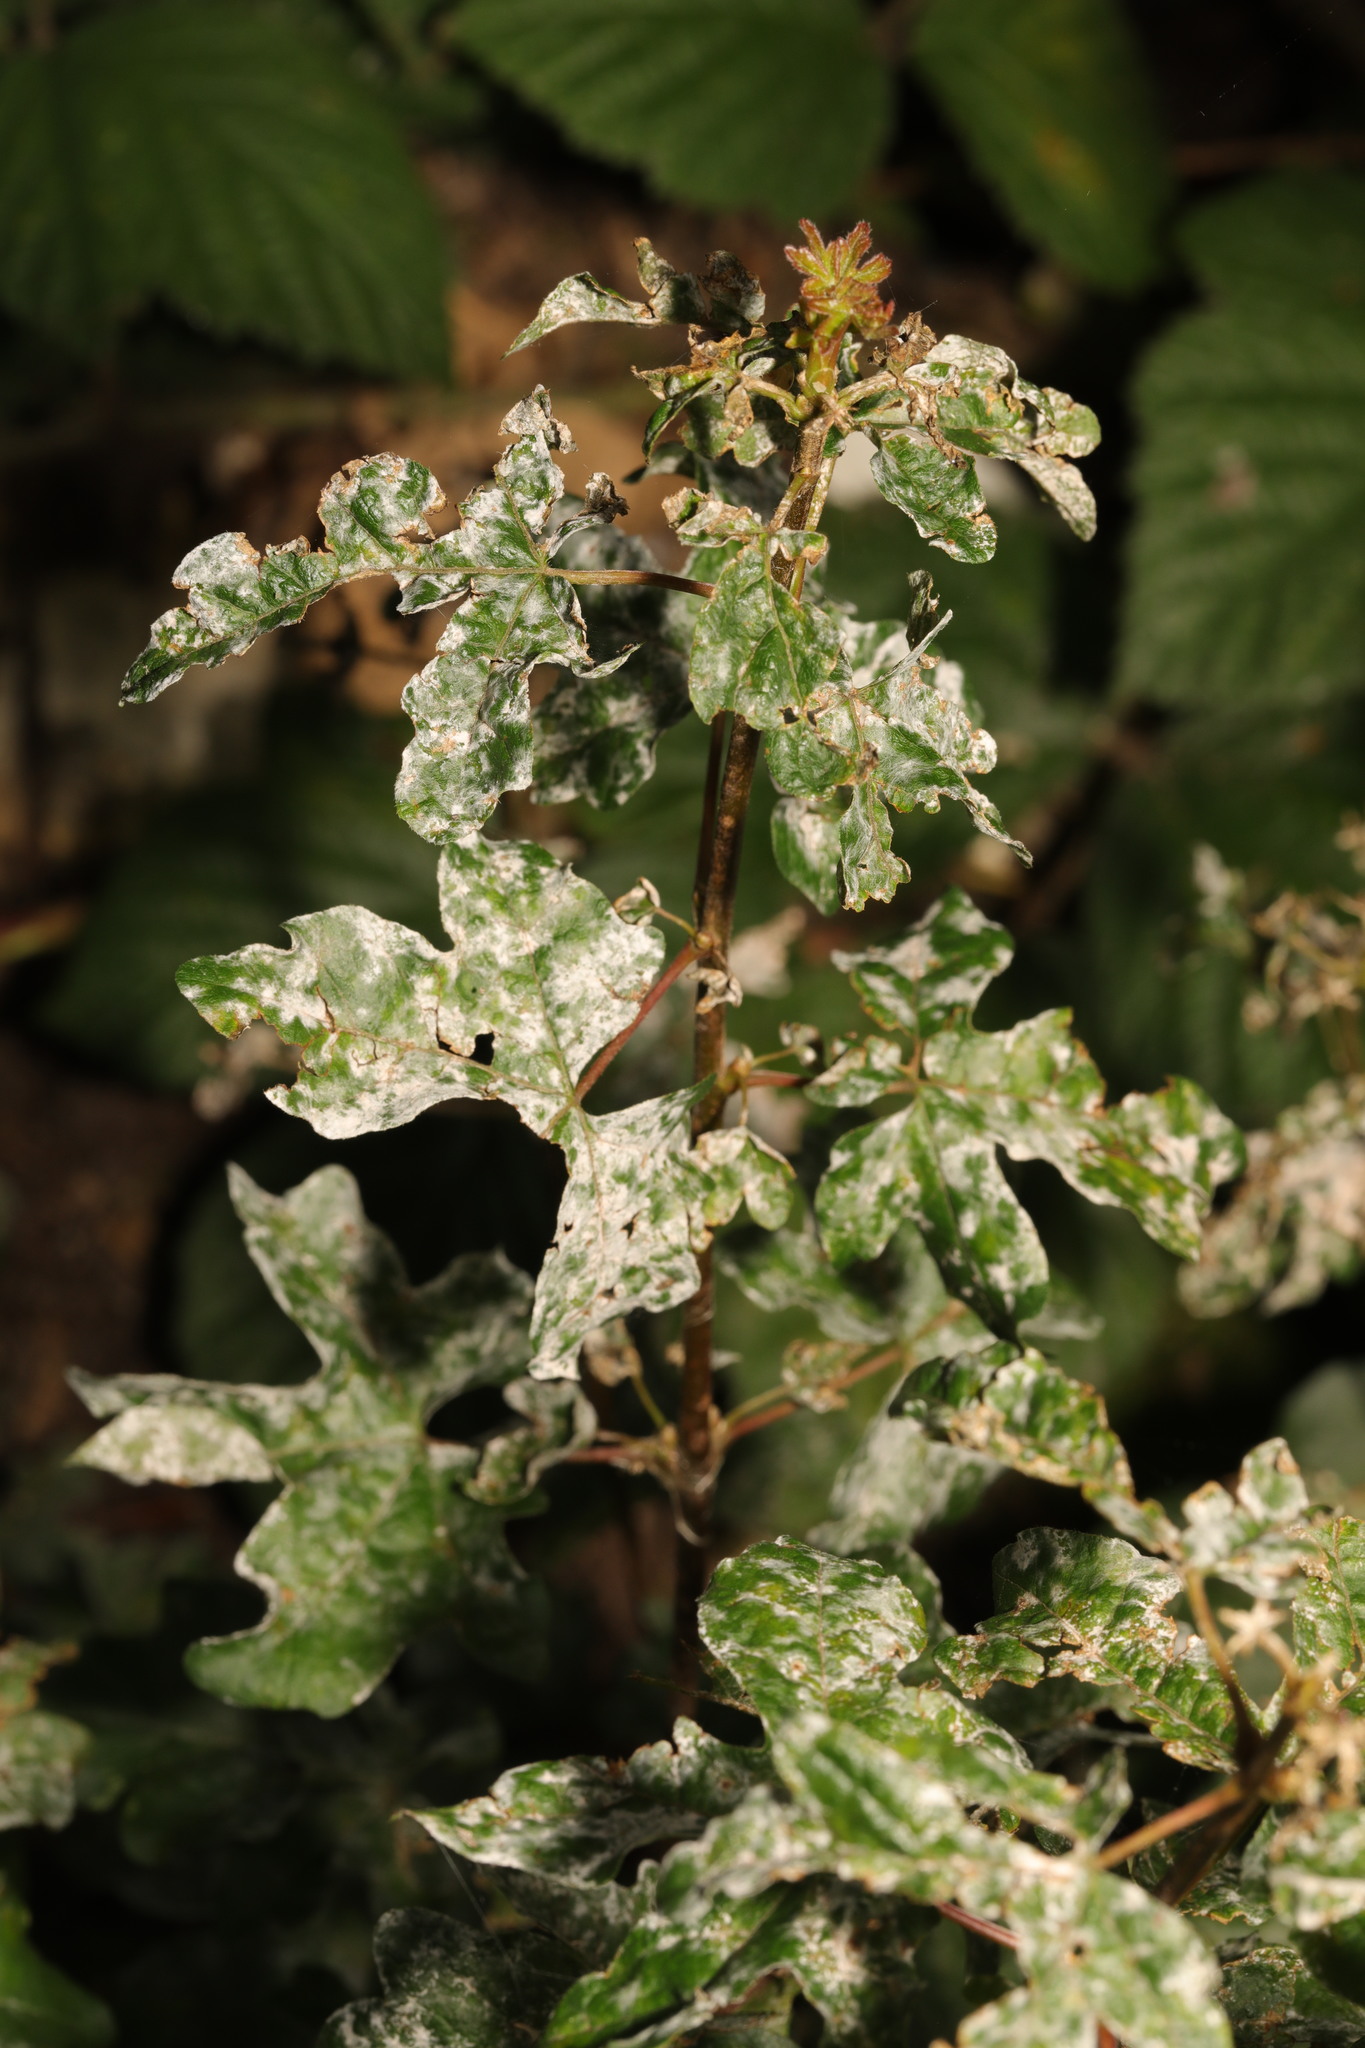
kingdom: Fungi
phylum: Ascomycota
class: Leotiomycetes
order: Helotiales
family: Erysiphaceae
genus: Sawadaea
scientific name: Sawadaea bicornis
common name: Maple mildew
